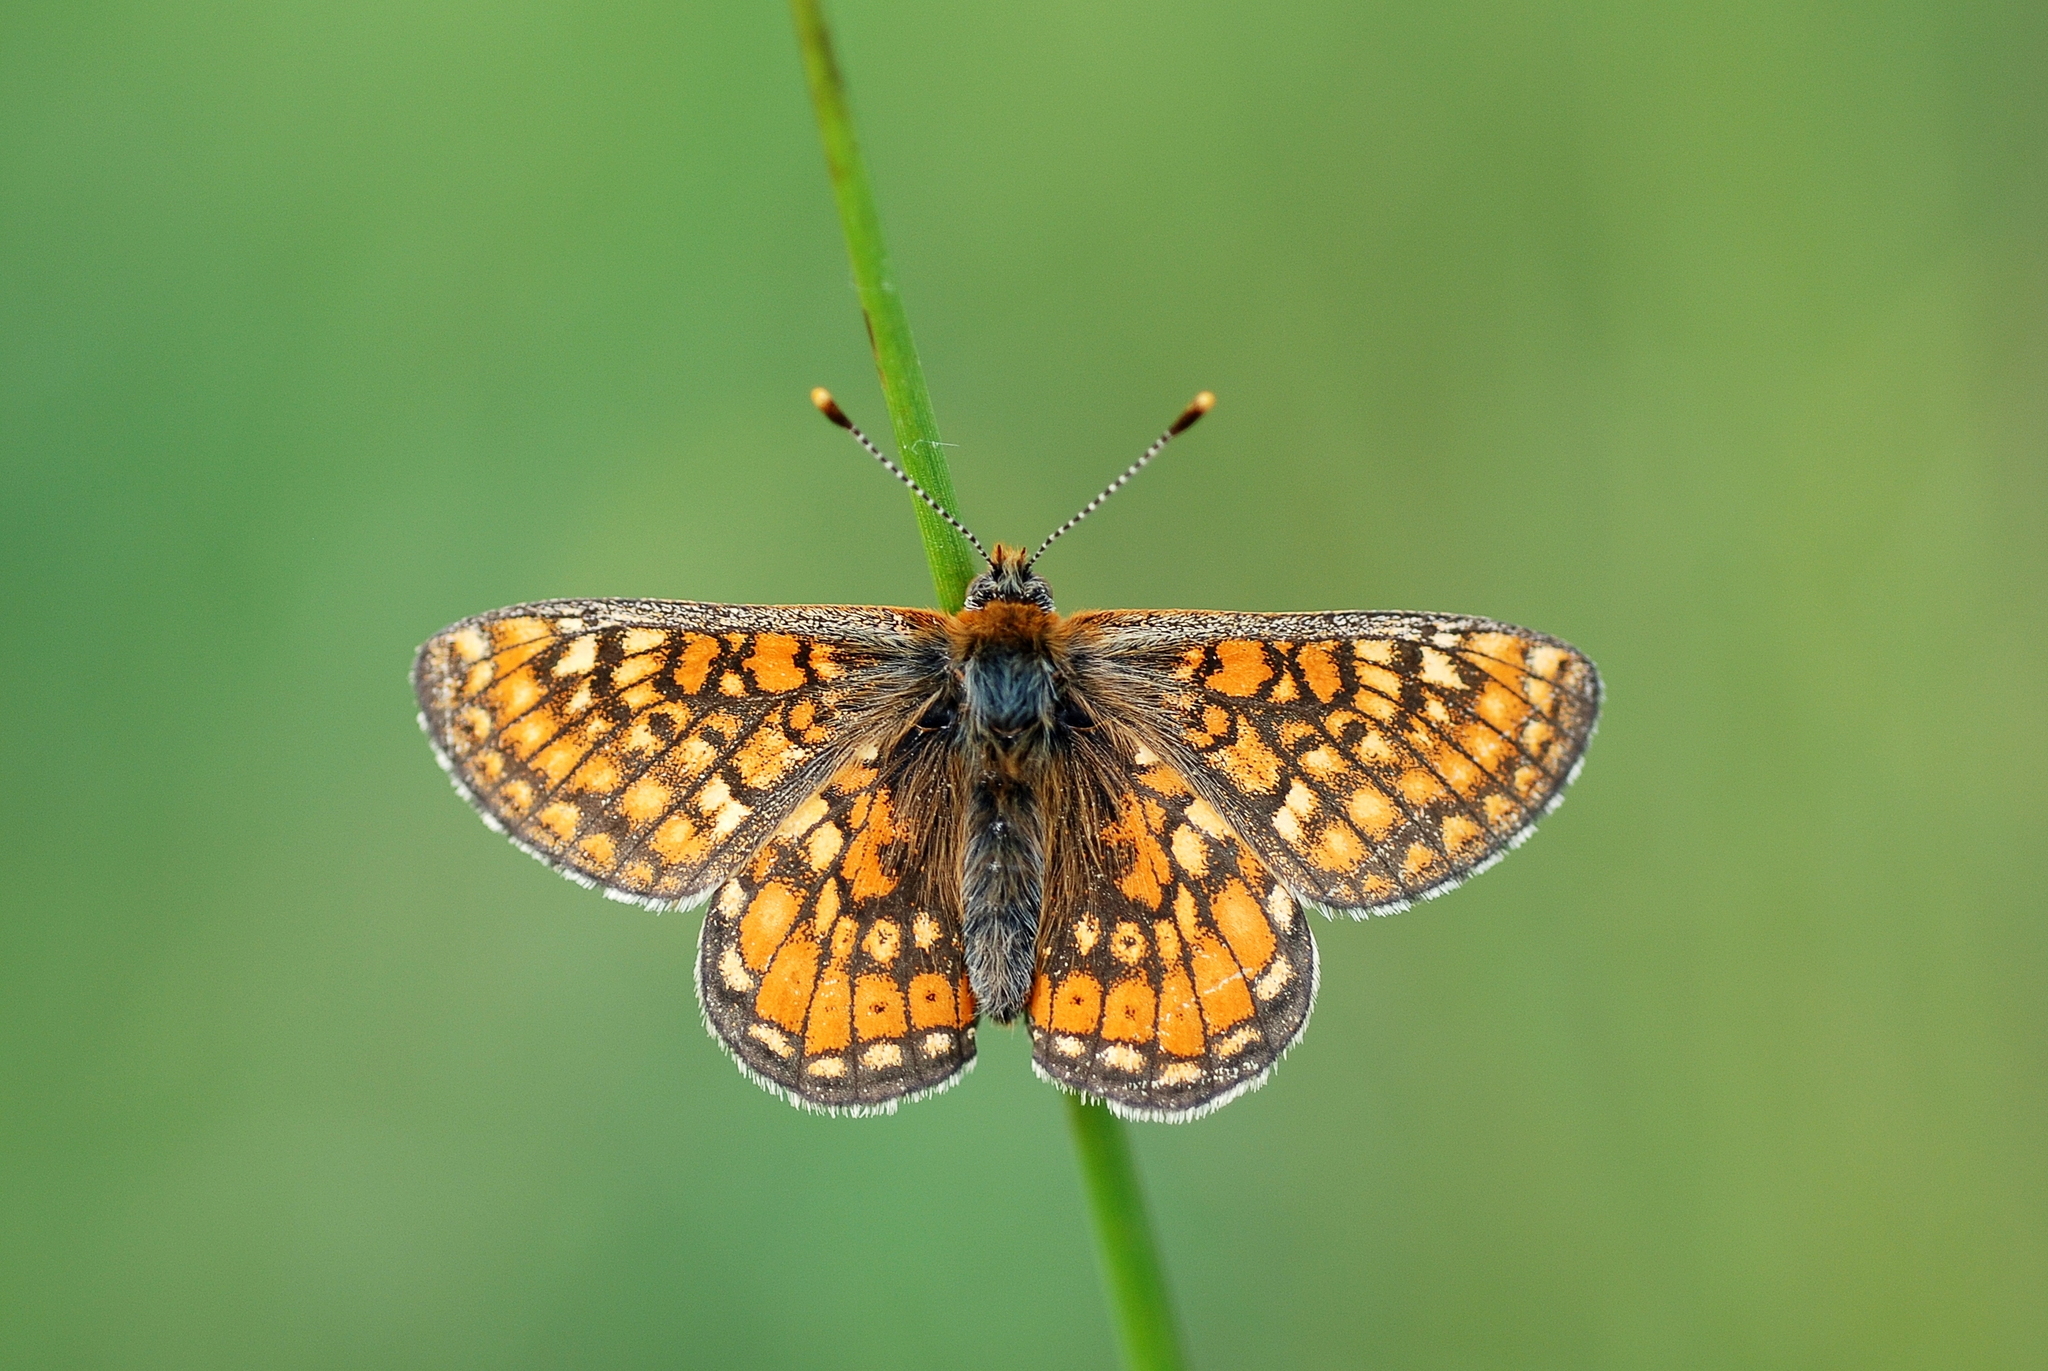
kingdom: Animalia
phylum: Arthropoda
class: Insecta
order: Lepidoptera
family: Nymphalidae
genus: Euphydryas
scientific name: Euphydryas aurinia
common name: Marsh fritillary
